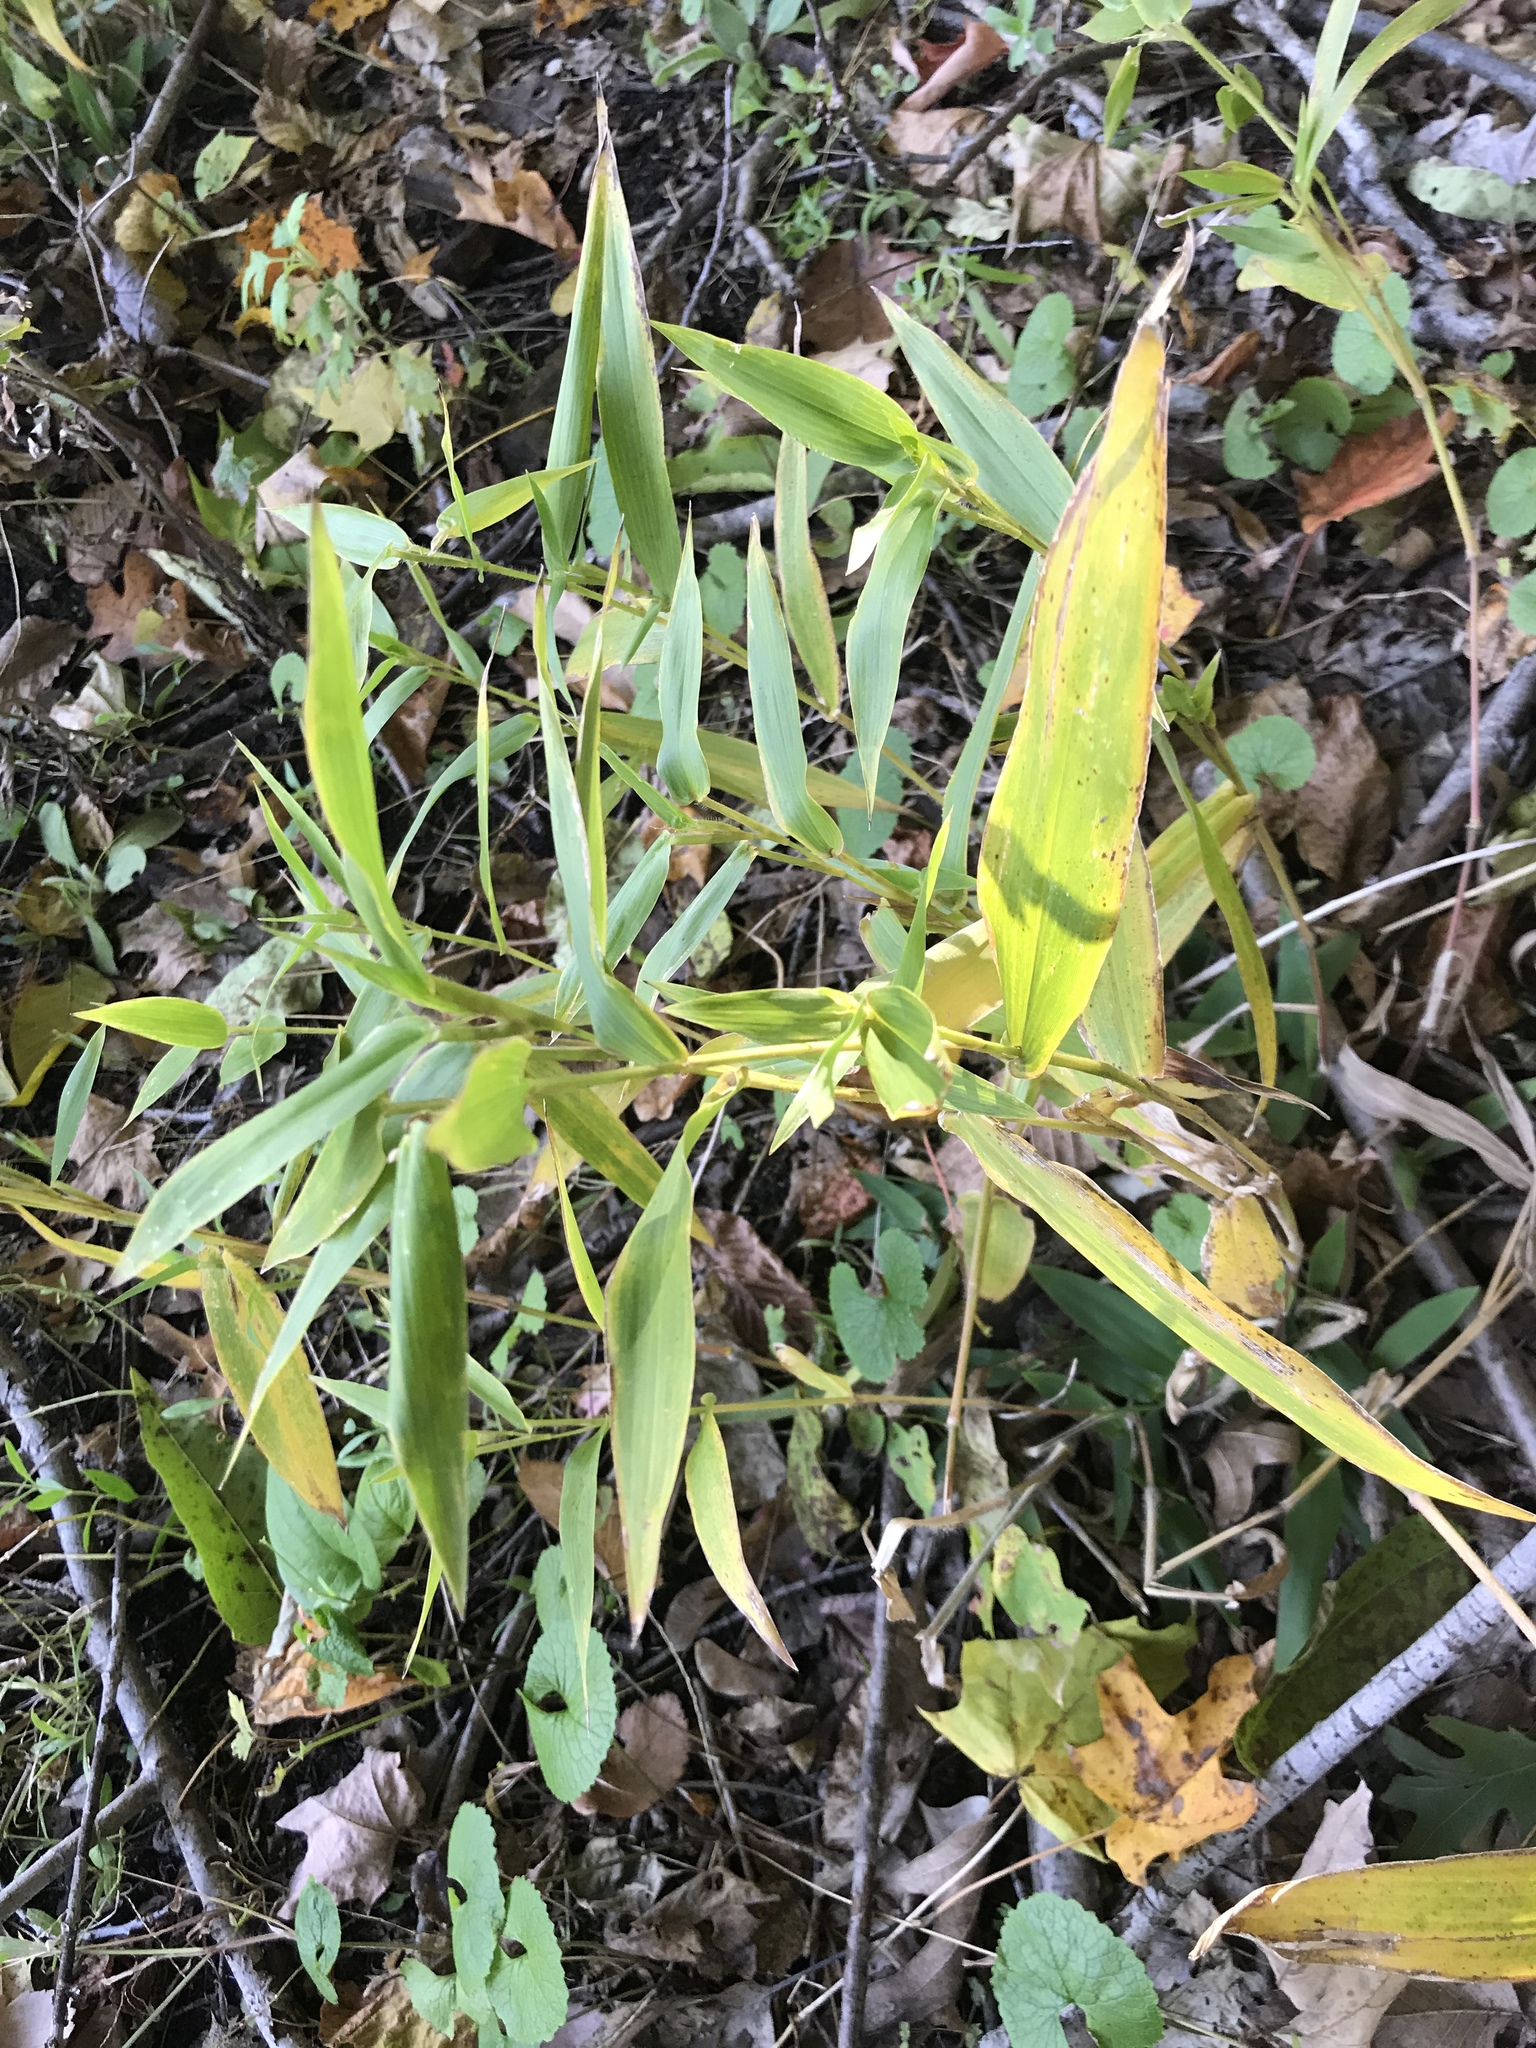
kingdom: Plantae
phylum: Tracheophyta
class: Liliopsida
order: Poales
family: Poaceae
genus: Dichanthelium
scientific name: Dichanthelium clandestinum
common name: Deer-tongue grass
